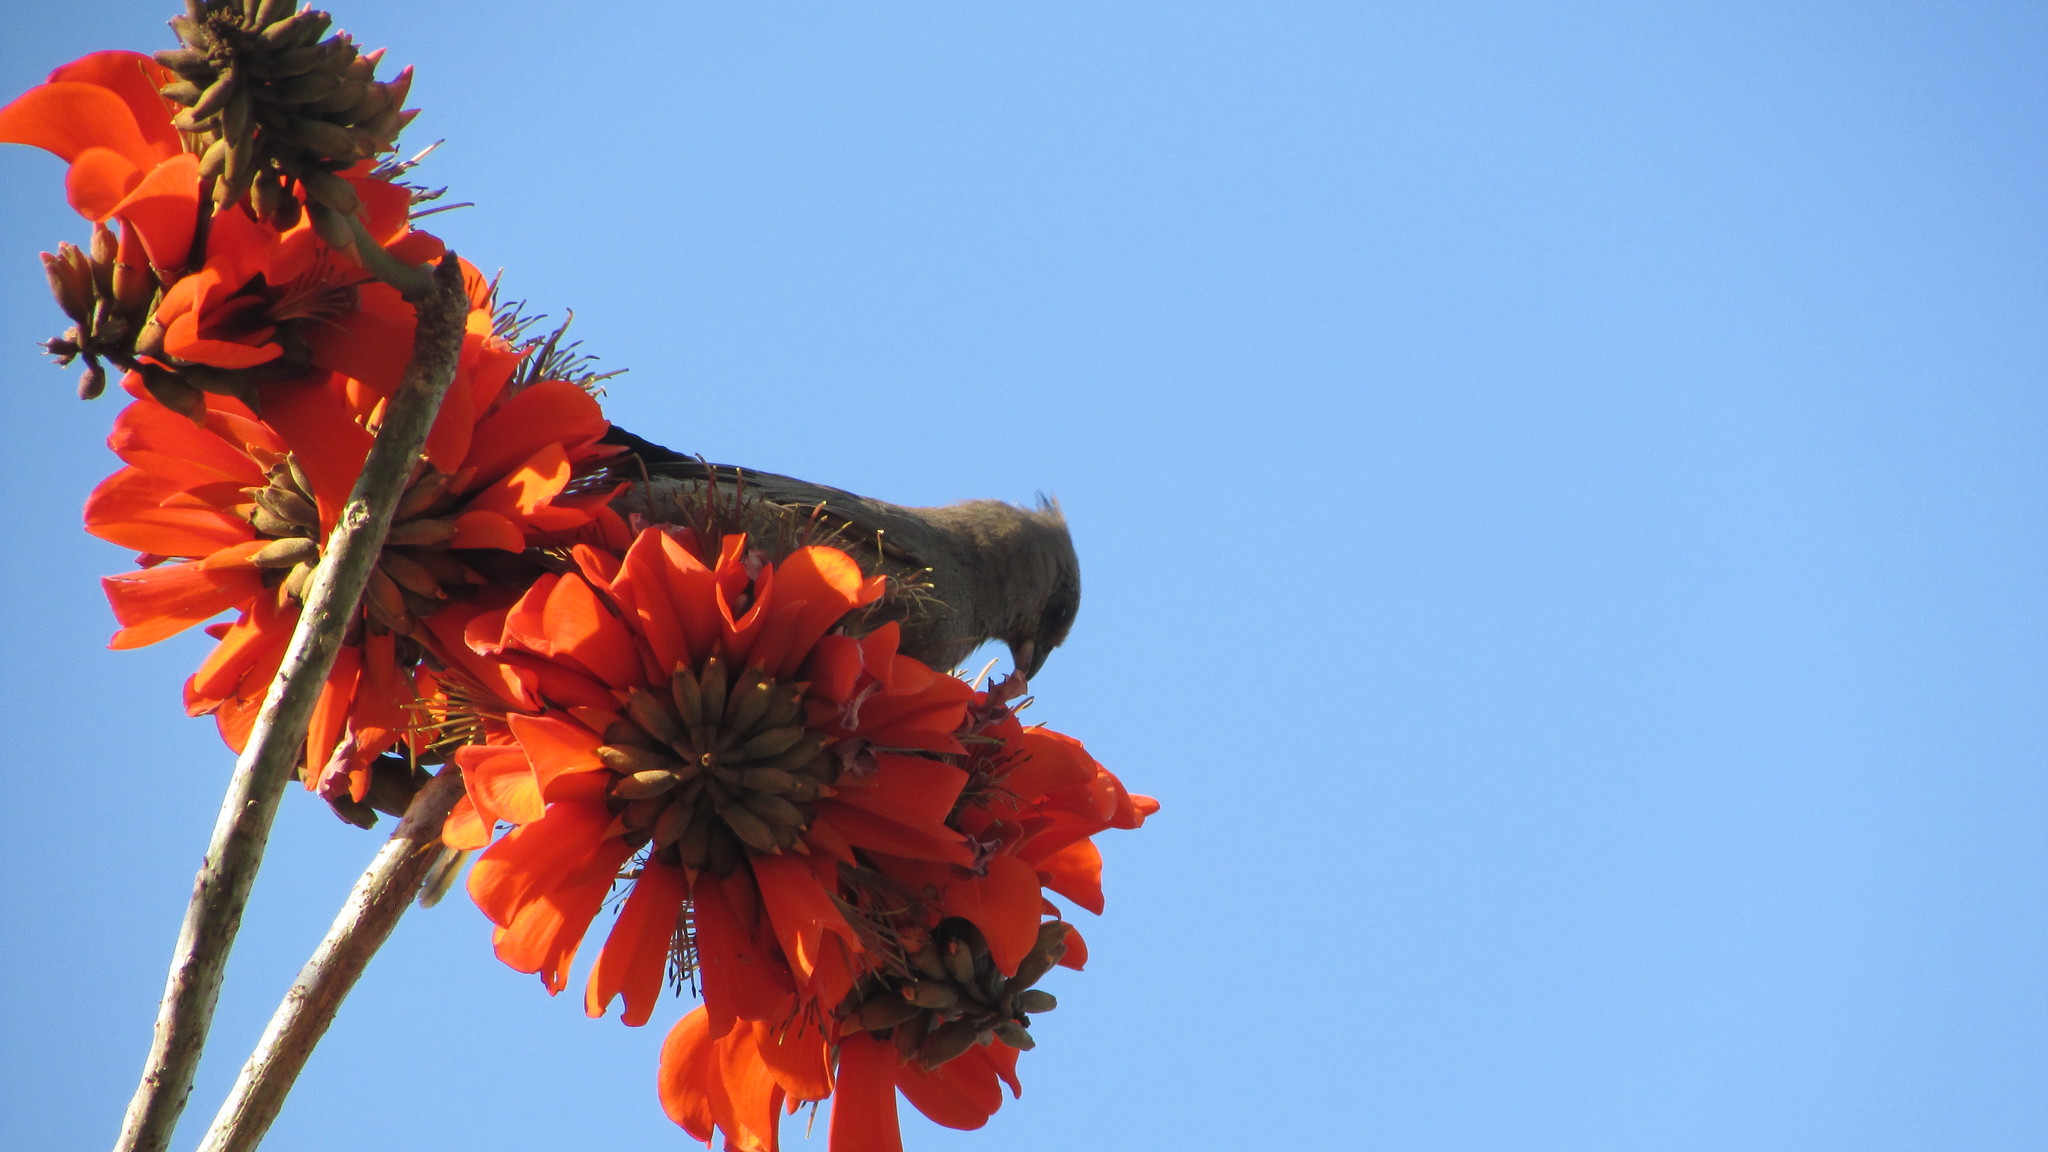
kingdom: Animalia
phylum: Chordata
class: Aves
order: Coliiformes
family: Coliidae
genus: Colius
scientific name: Colius striatus
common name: Speckled mousebird
